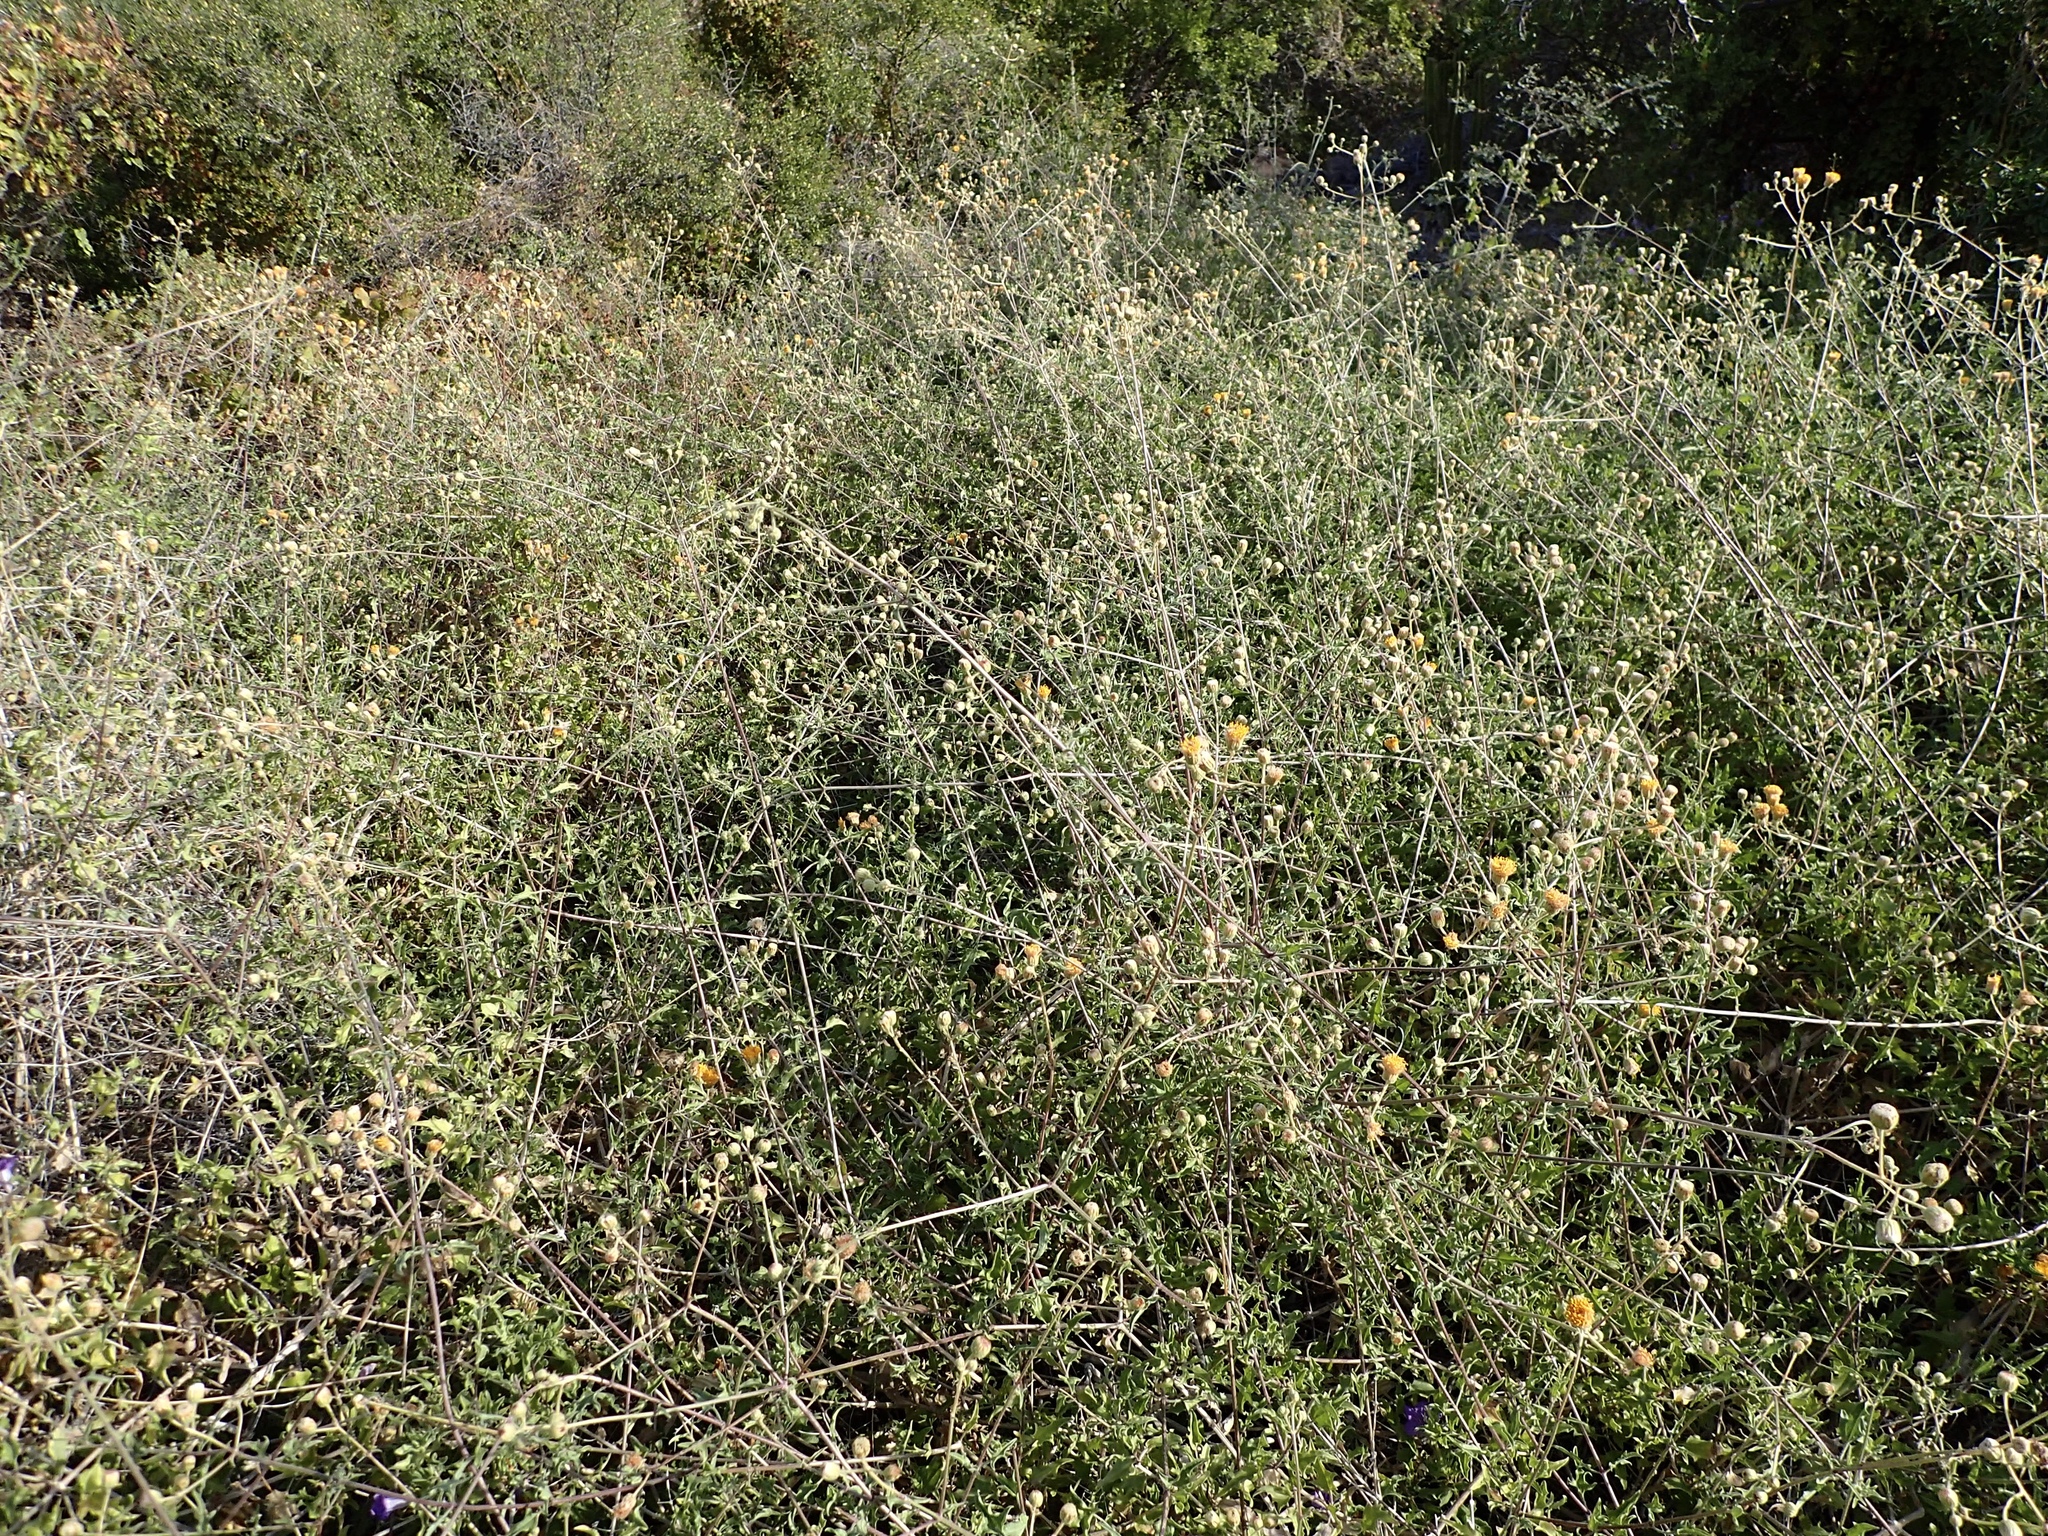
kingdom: Plantae
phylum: Tracheophyta
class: Magnoliopsida
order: Asterales
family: Asteraceae
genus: Bebbia
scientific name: Bebbia atriplicifolia
